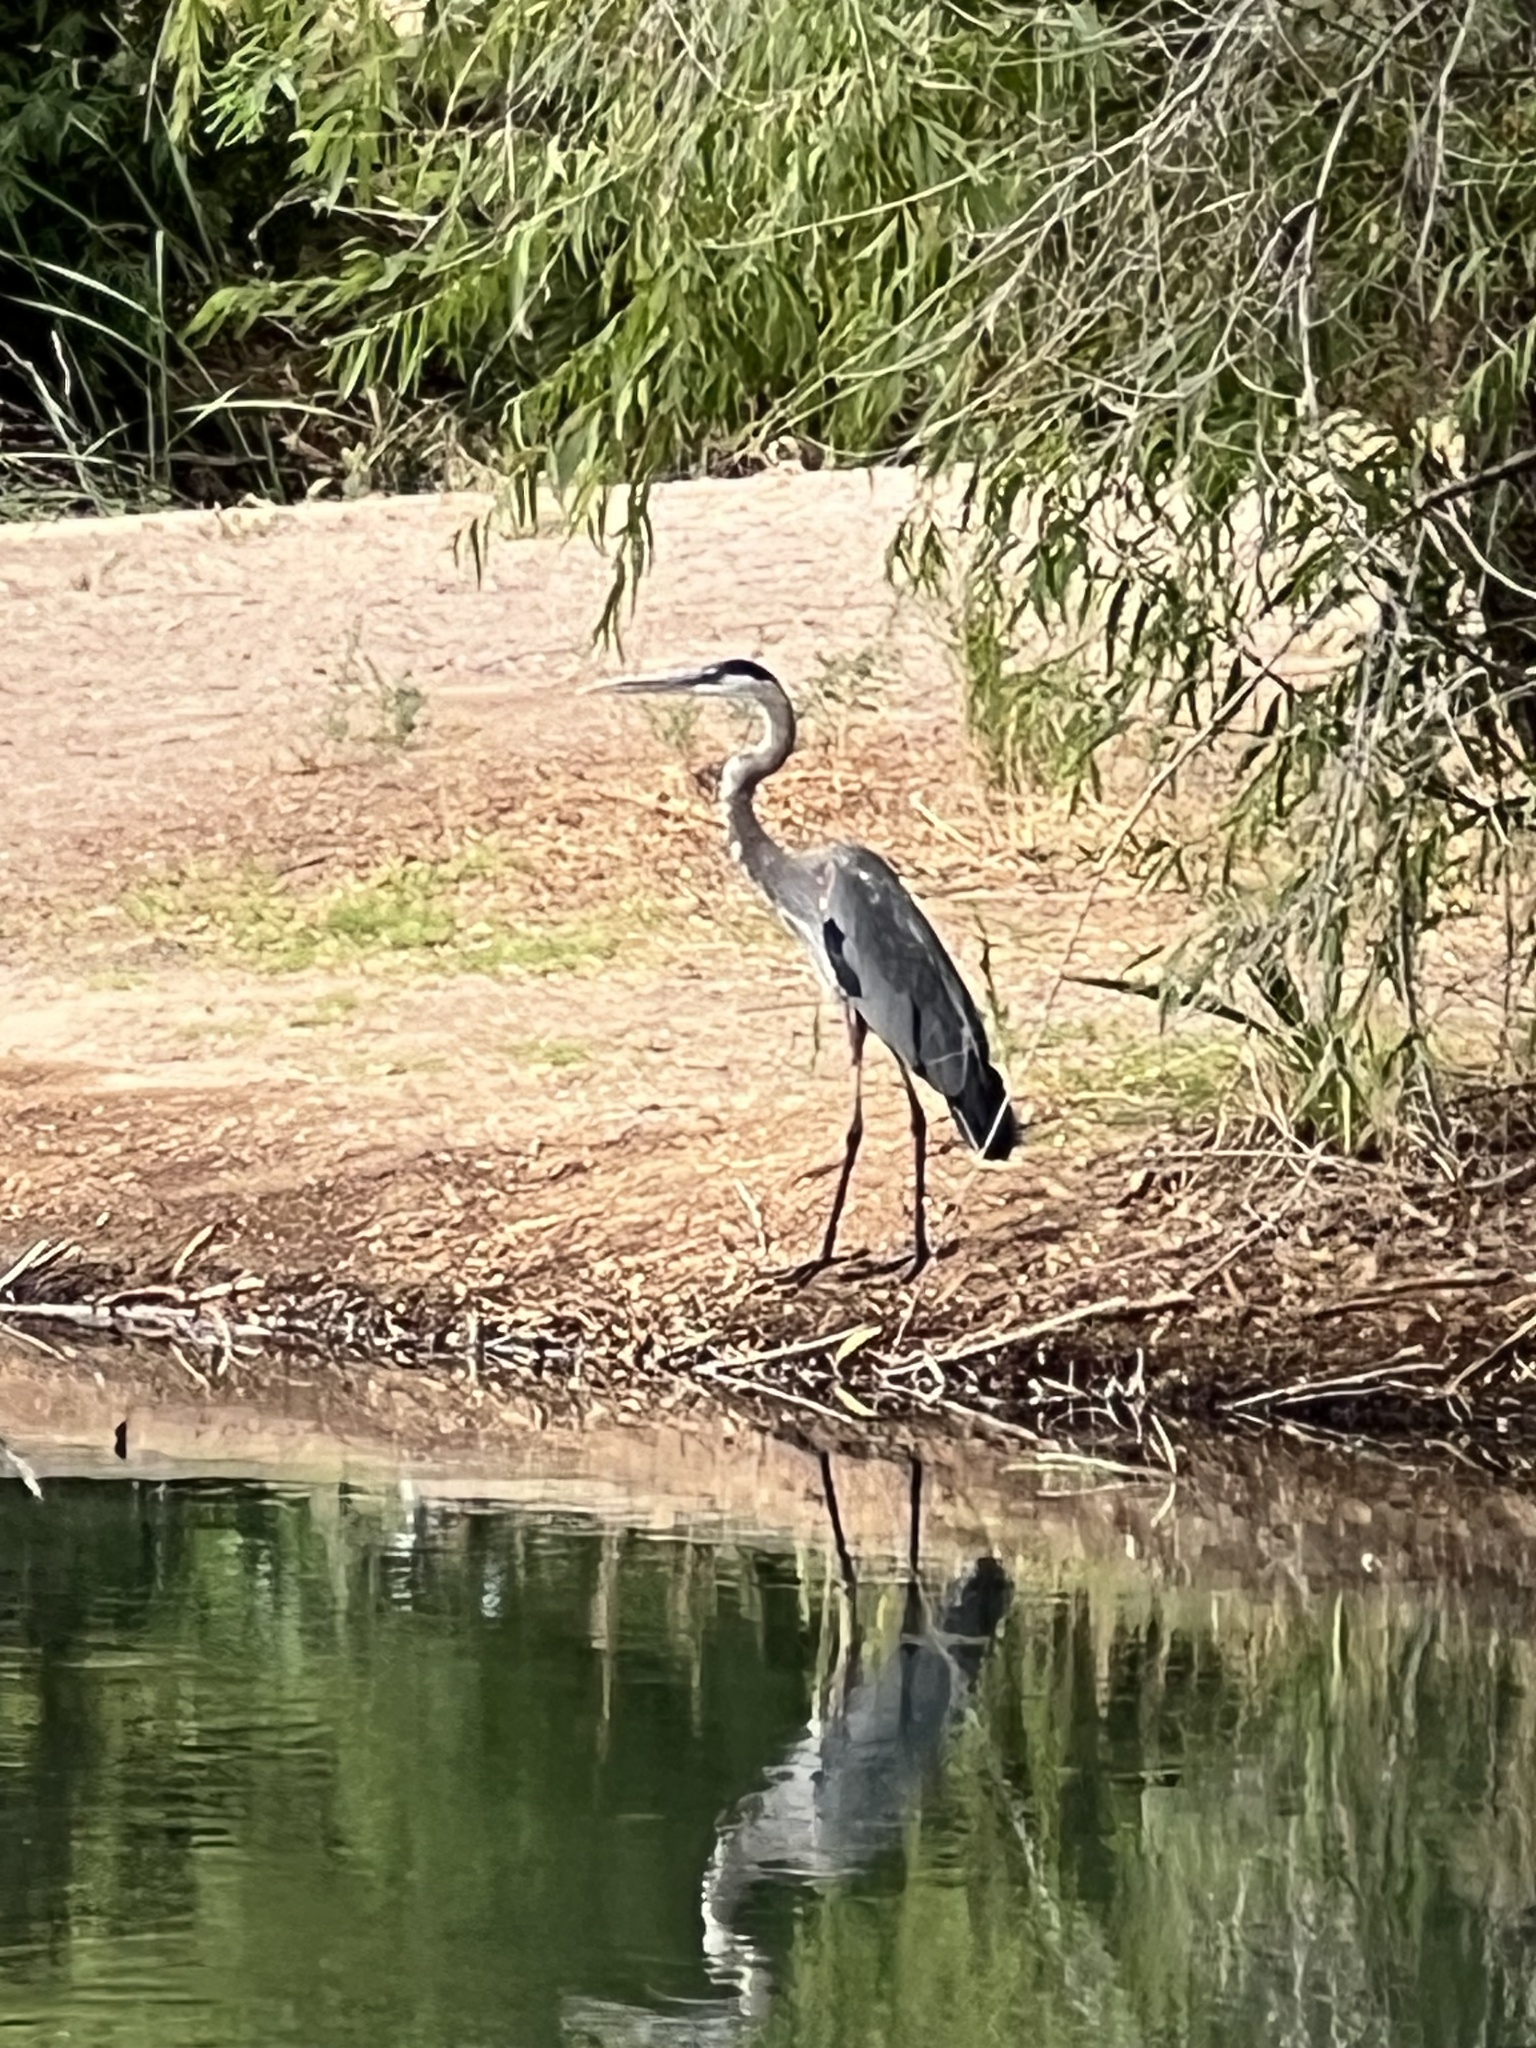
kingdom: Animalia
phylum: Chordata
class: Aves
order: Pelecaniformes
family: Ardeidae
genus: Ardea
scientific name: Ardea herodias
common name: Great blue heron
